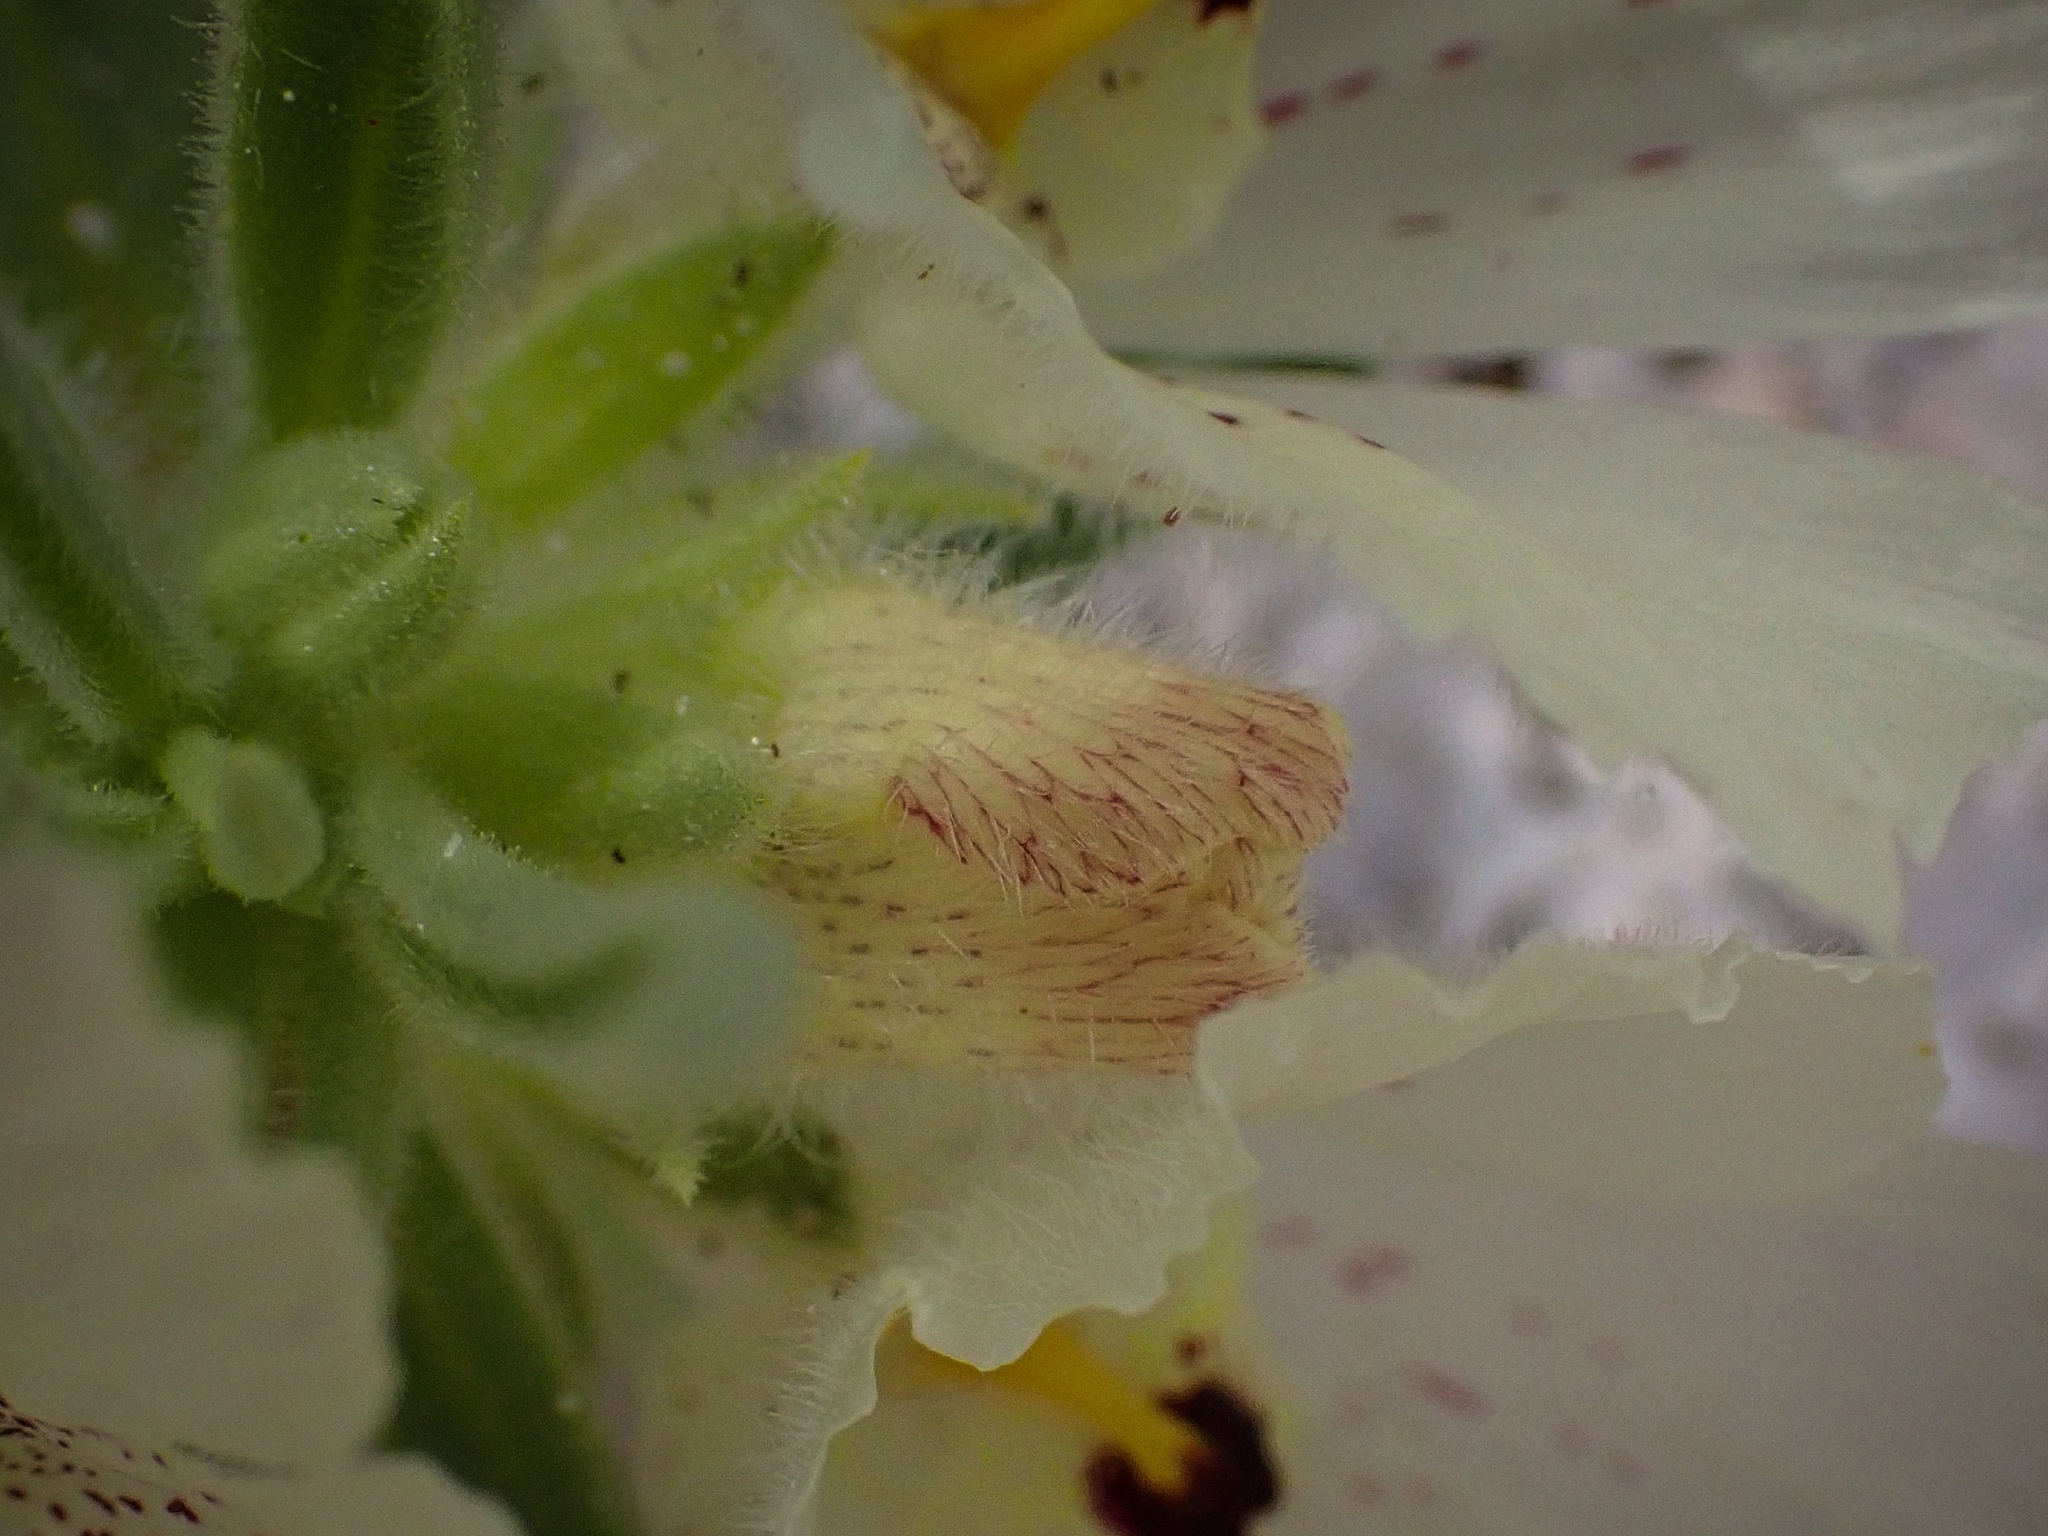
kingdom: Plantae
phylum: Tracheophyta
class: Magnoliopsida
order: Lamiales
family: Plantaginaceae
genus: Mohavea
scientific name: Mohavea confertiflora
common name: Ghost flower
